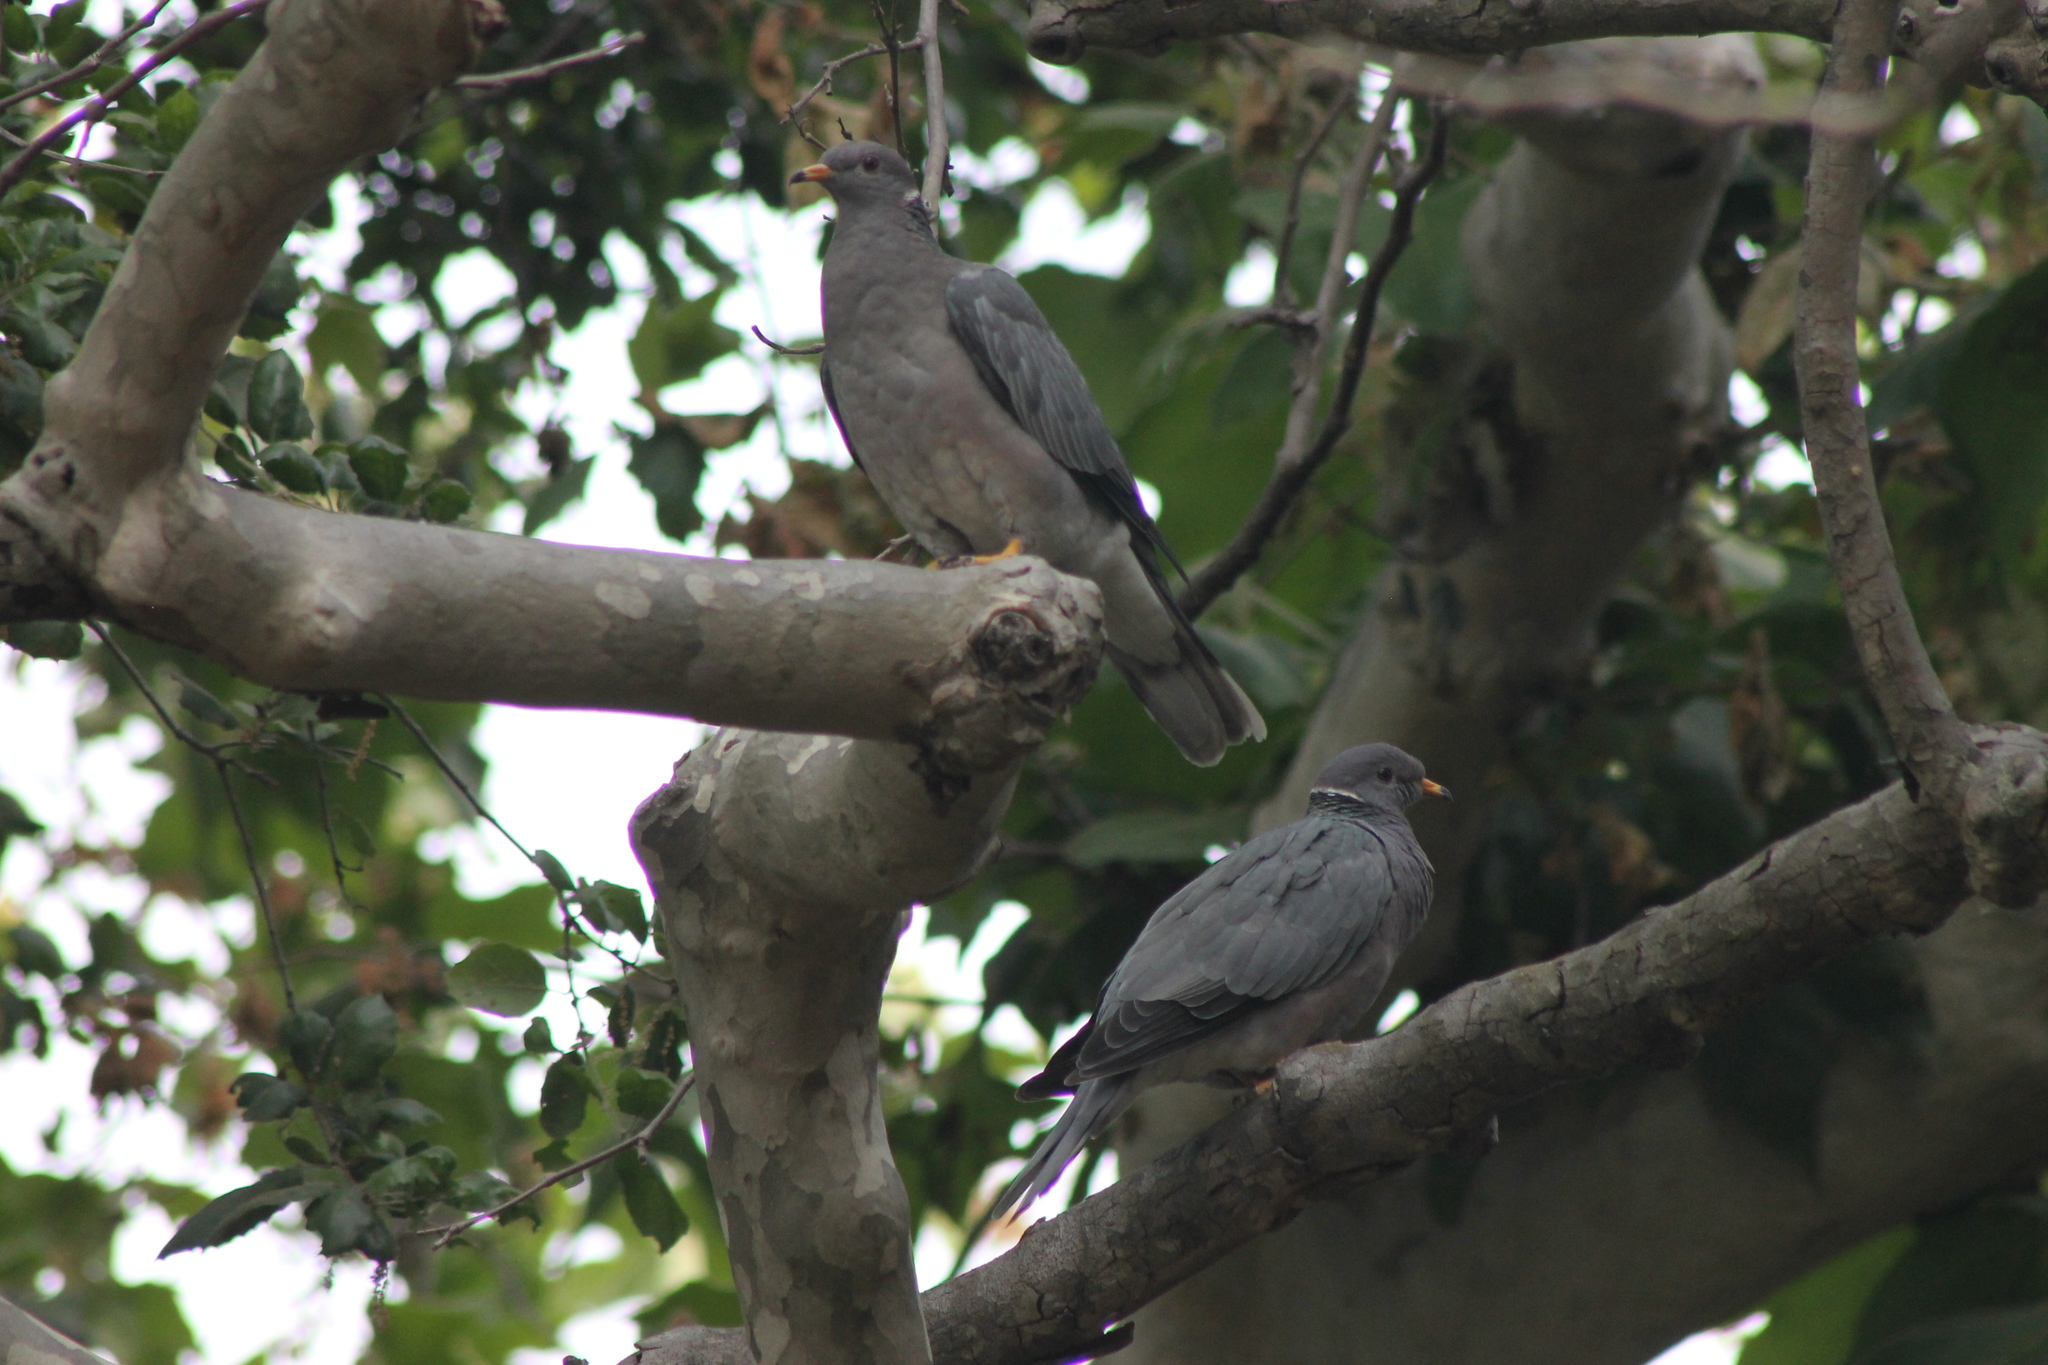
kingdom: Animalia
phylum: Chordata
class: Aves
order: Columbiformes
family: Columbidae
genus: Patagioenas
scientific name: Patagioenas fasciata
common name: Band-tailed pigeon
